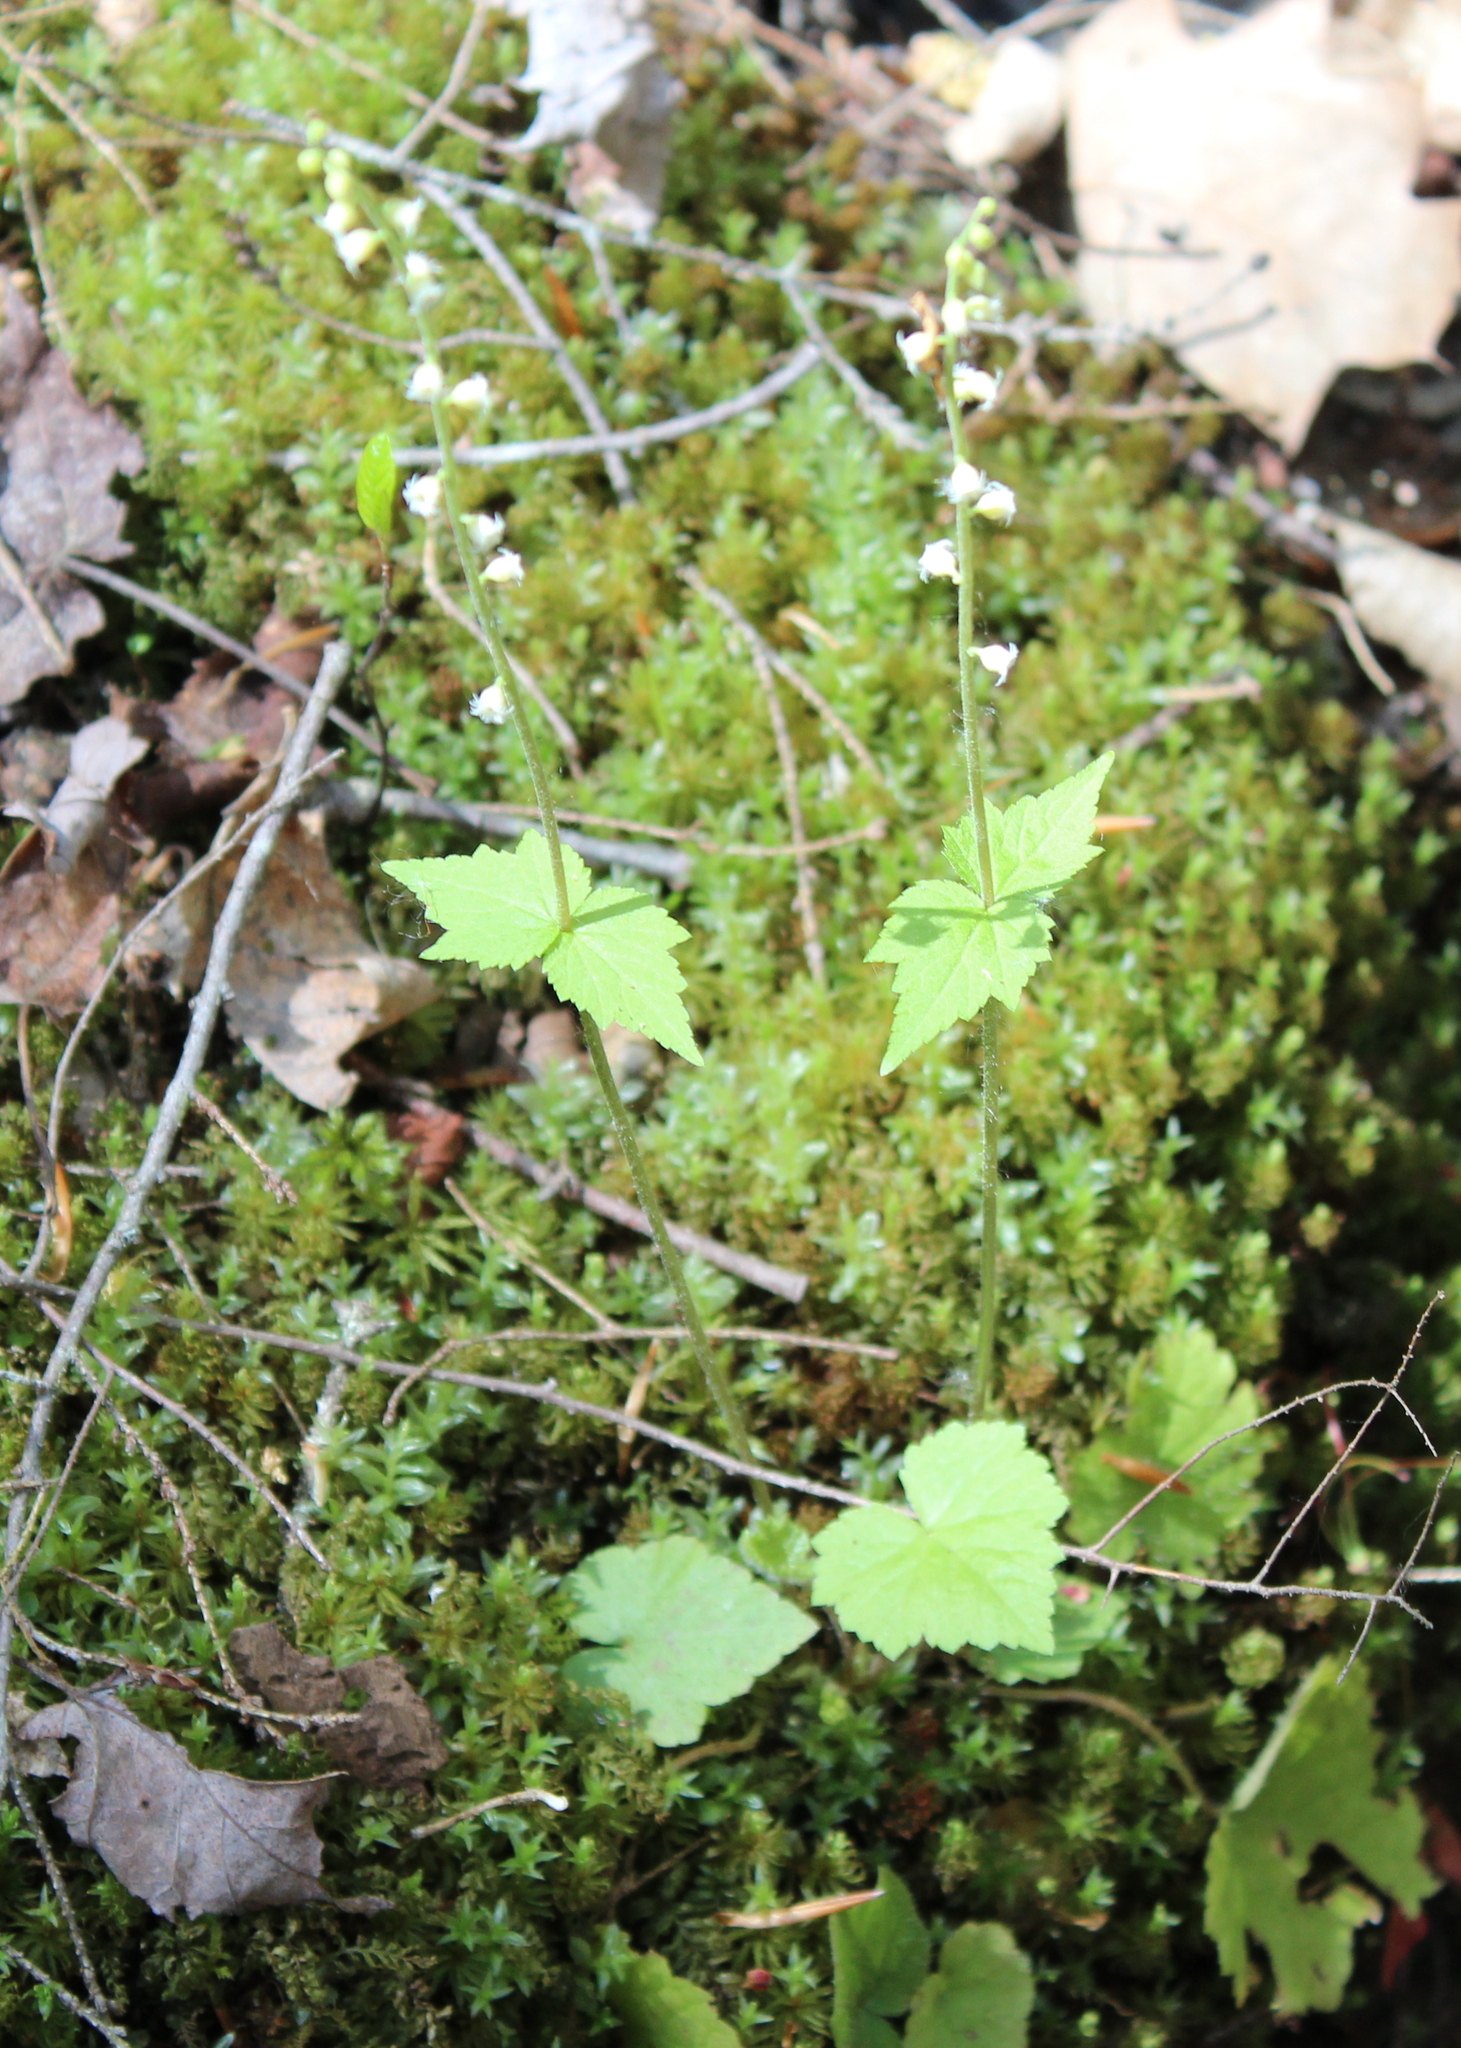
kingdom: Plantae
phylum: Tracheophyta
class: Magnoliopsida
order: Saxifragales
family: Saxifragaceae
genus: Mitella
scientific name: Mitella diphylla
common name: Coolwort
